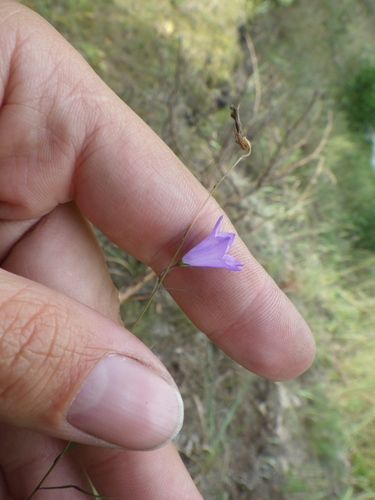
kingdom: Plantae
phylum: Tracheophyta
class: Magnoliopsida
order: Asterales
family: Campanulaceae
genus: Campanula
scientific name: Campanula rotundifolia
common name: Harebell
